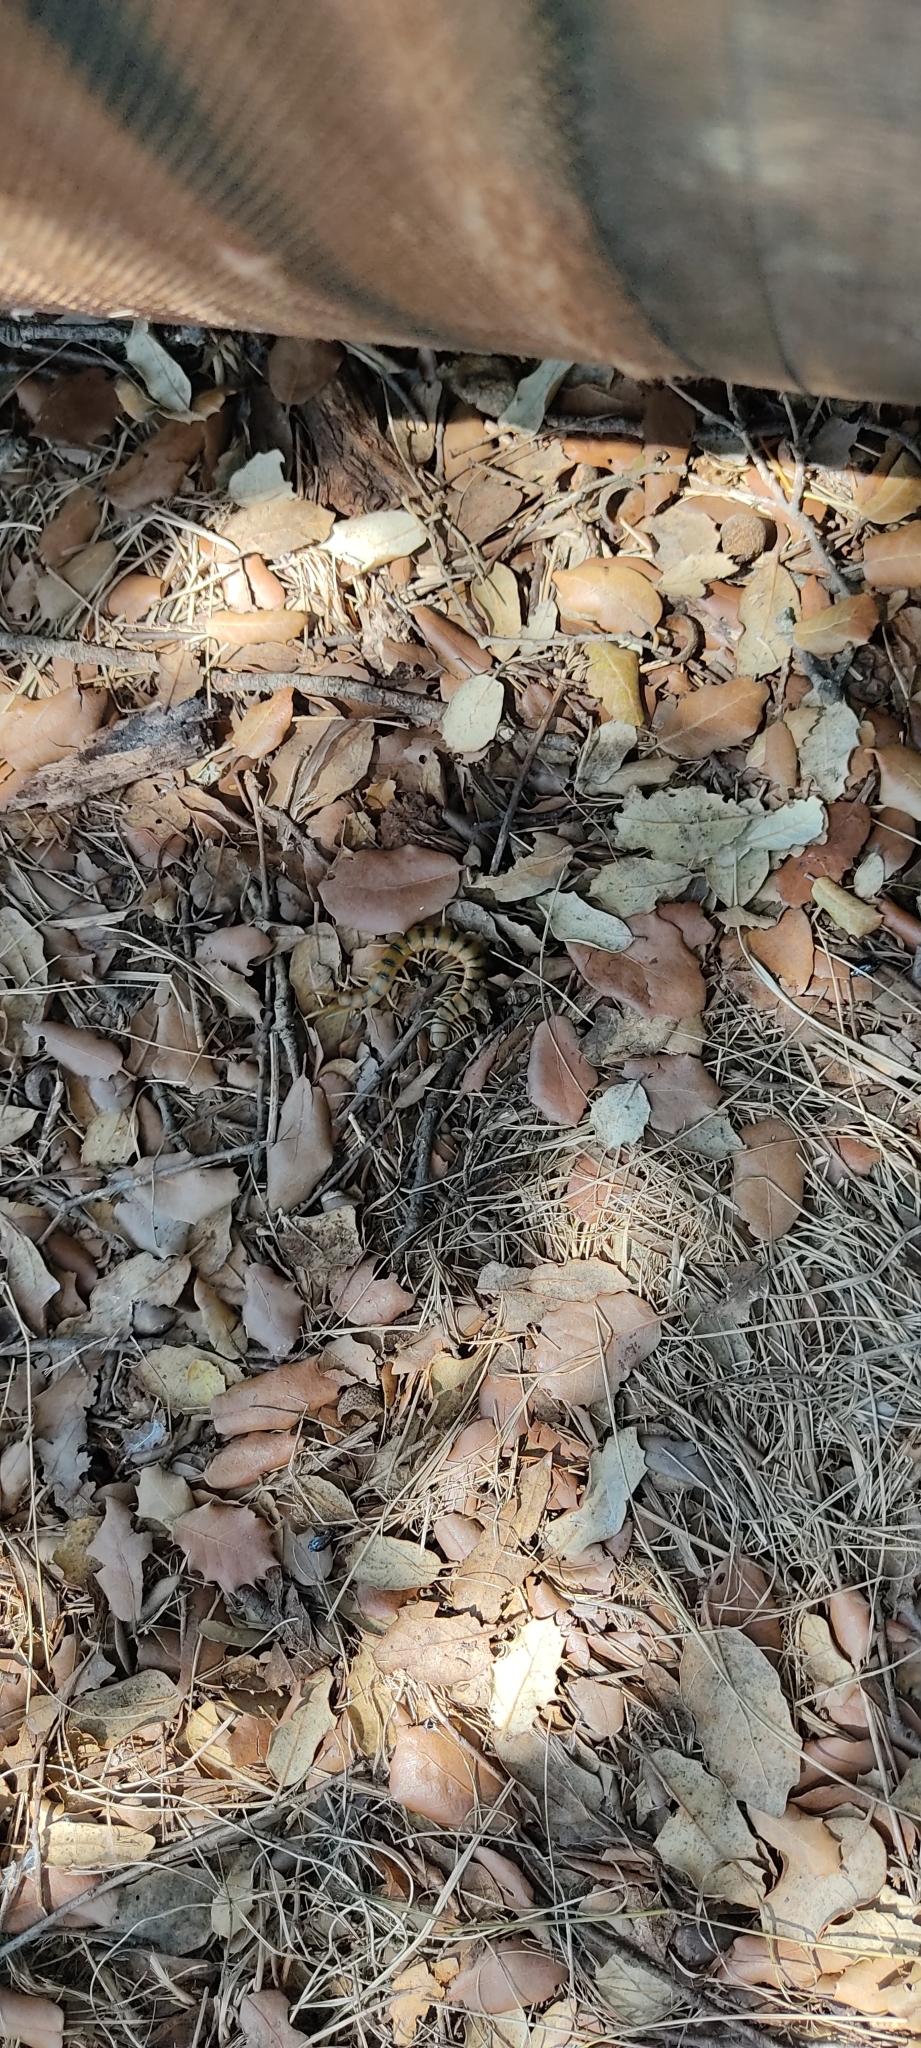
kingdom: Animalia
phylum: Arthropoda
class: Chilopoda
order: Scolopendromorpha
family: Scolopendridae
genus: Scolopendra
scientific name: Scolopendra cingulata
